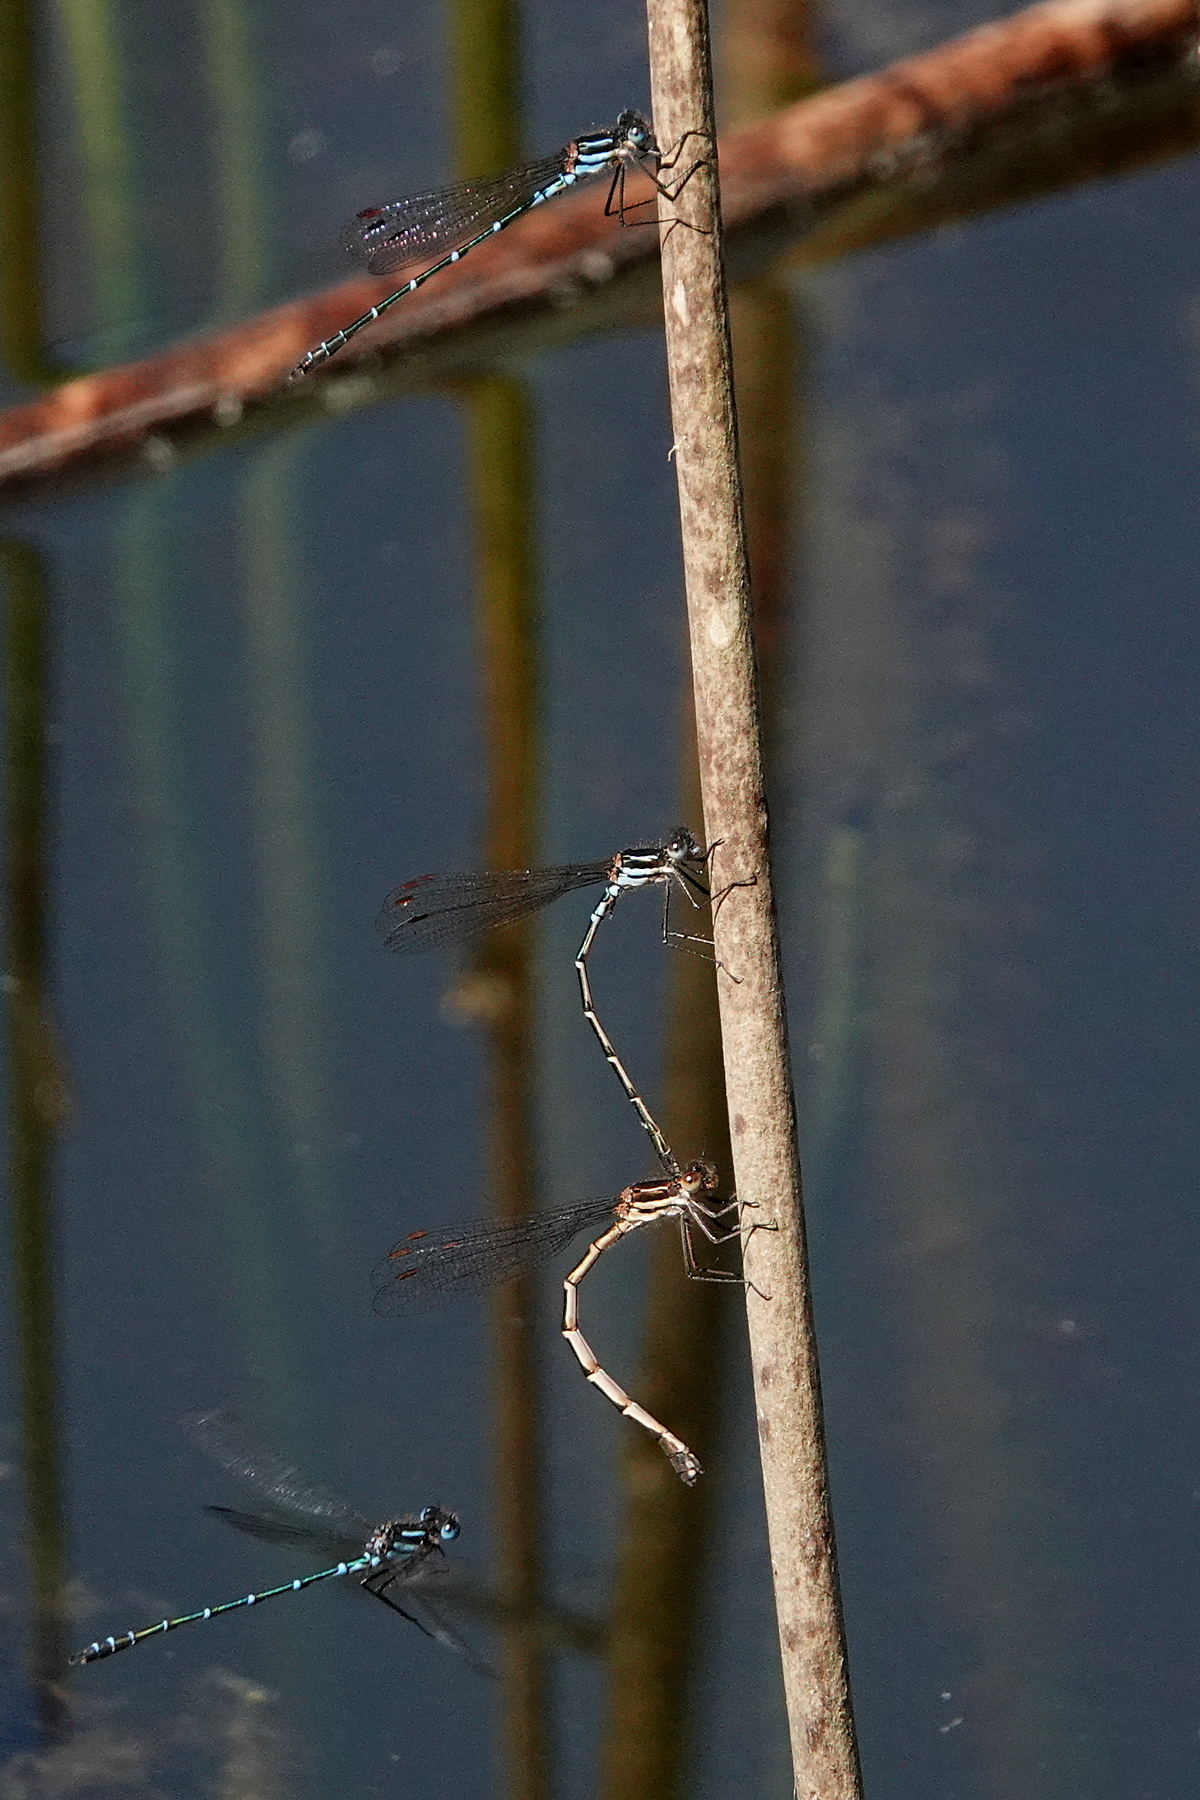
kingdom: Animalia
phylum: Arthropoda
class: Insecta
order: Odonata
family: Lestidae
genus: Austrolestes
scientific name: Austrolestes psyche
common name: Cup ringtail
